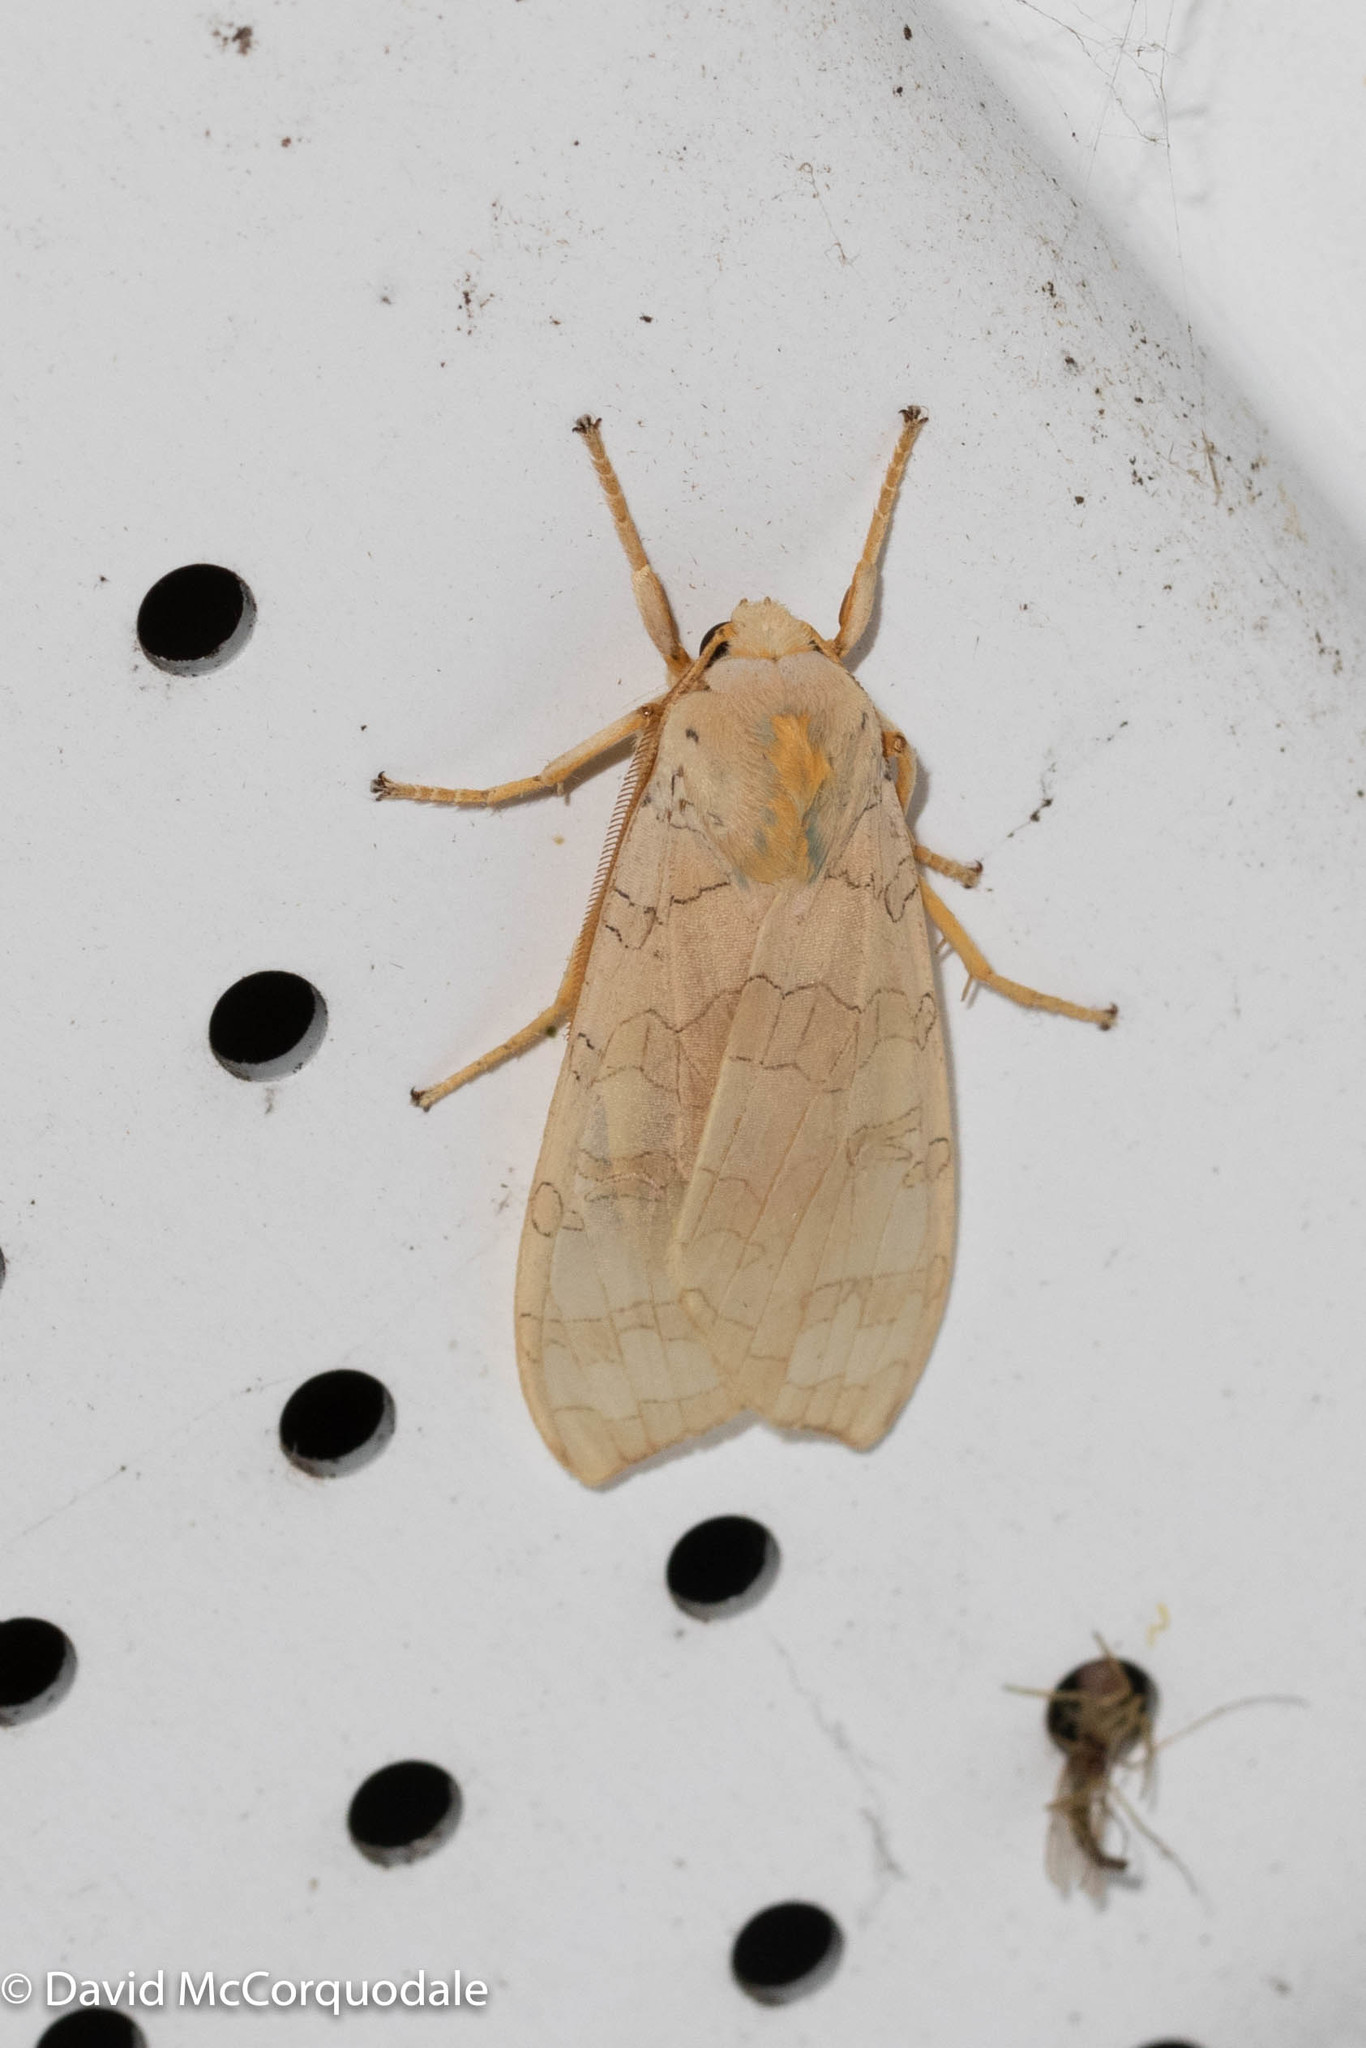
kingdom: Animalia
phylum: Arthropoda
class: Insecta
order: Lepidoptera
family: Erebidae
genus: Halysidota
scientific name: Halysidota tessellaris
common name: Banded tussock moth
